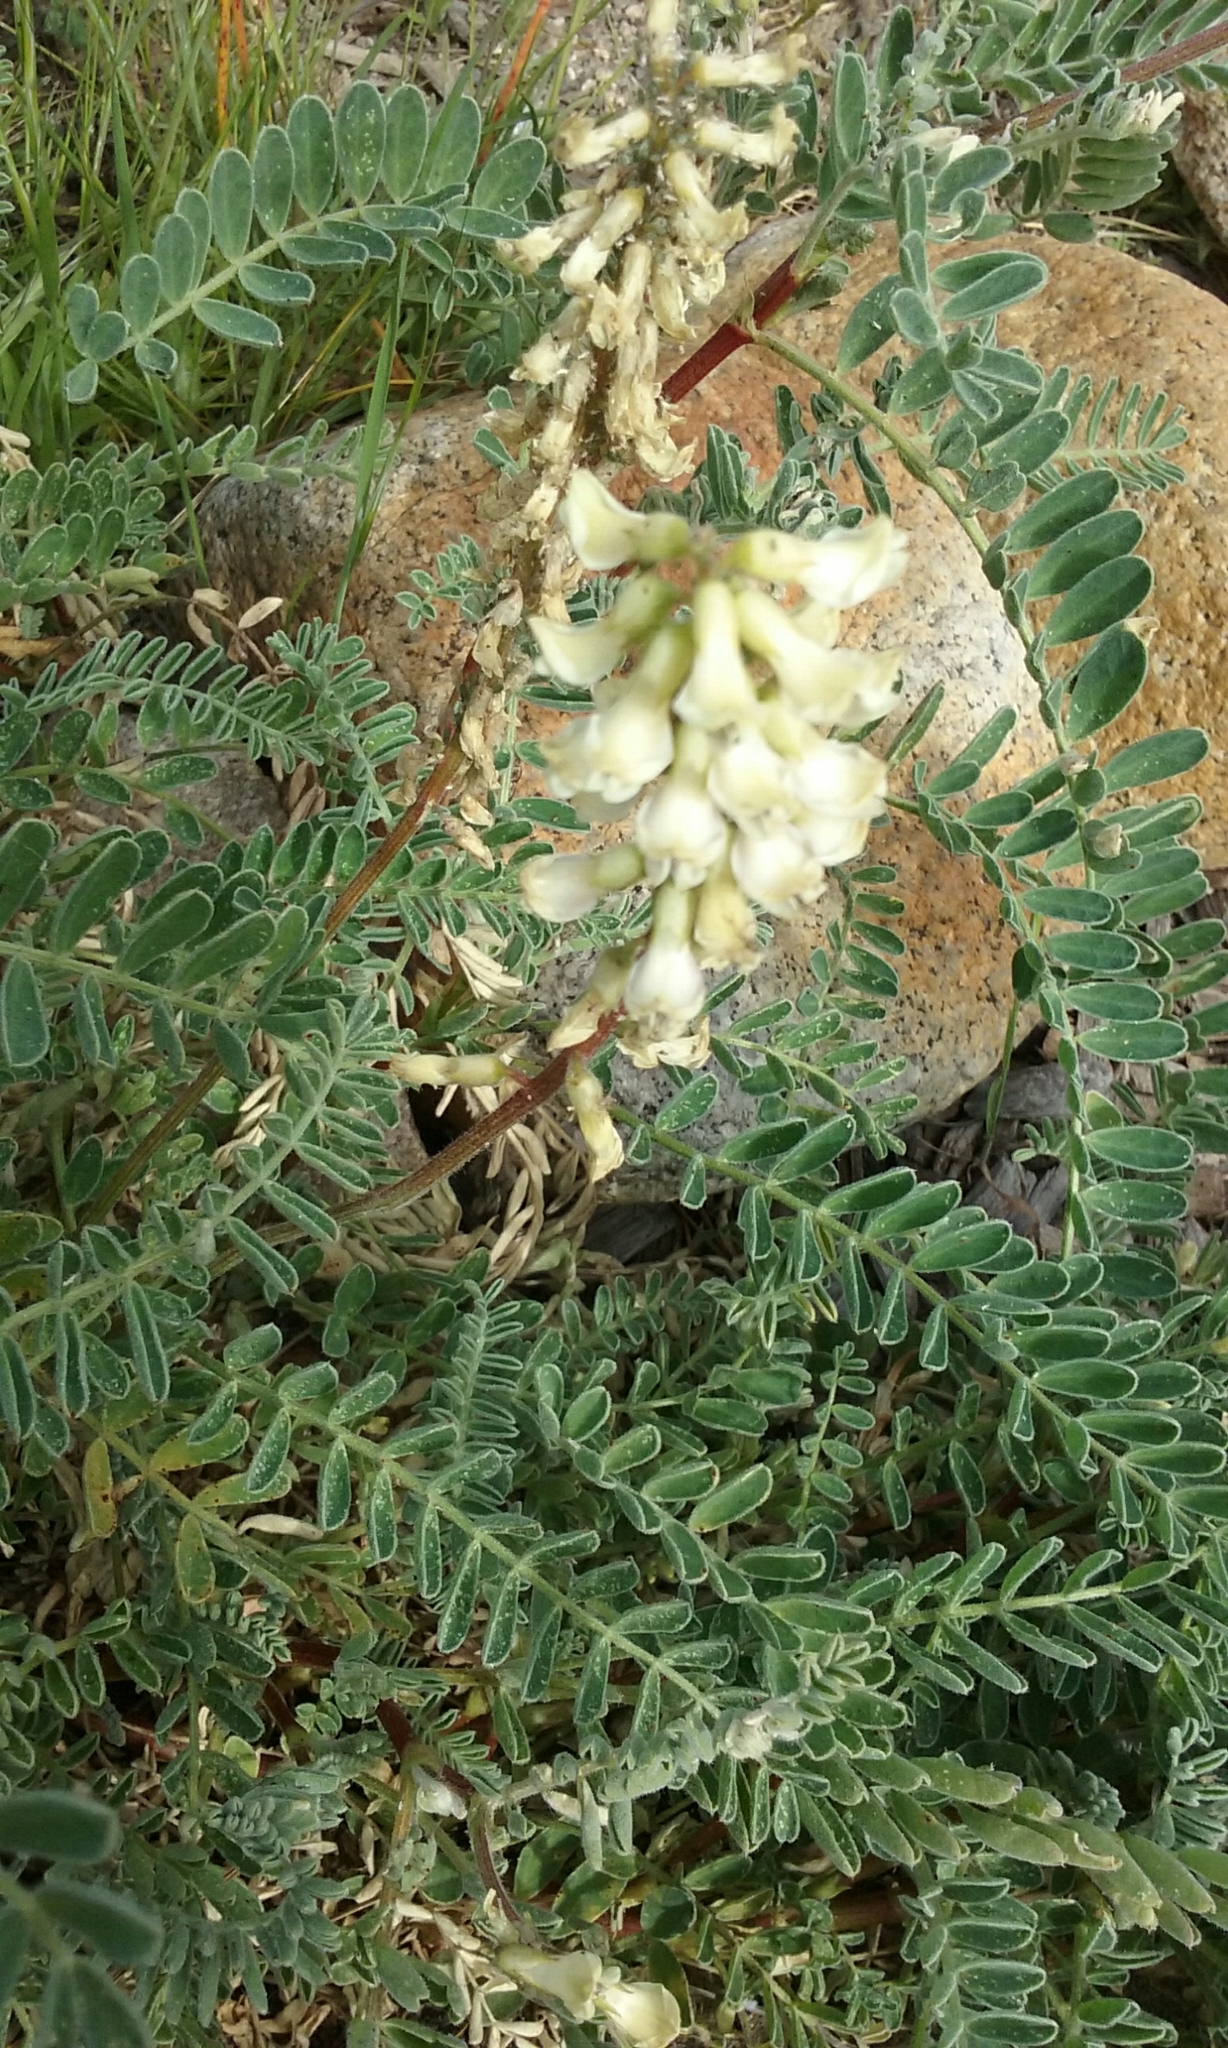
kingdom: Plantae
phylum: Tracheophyta
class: Magnoliopsida
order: Fabales
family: Fabaceae
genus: Astragalus
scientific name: Astragalus nuttallii
